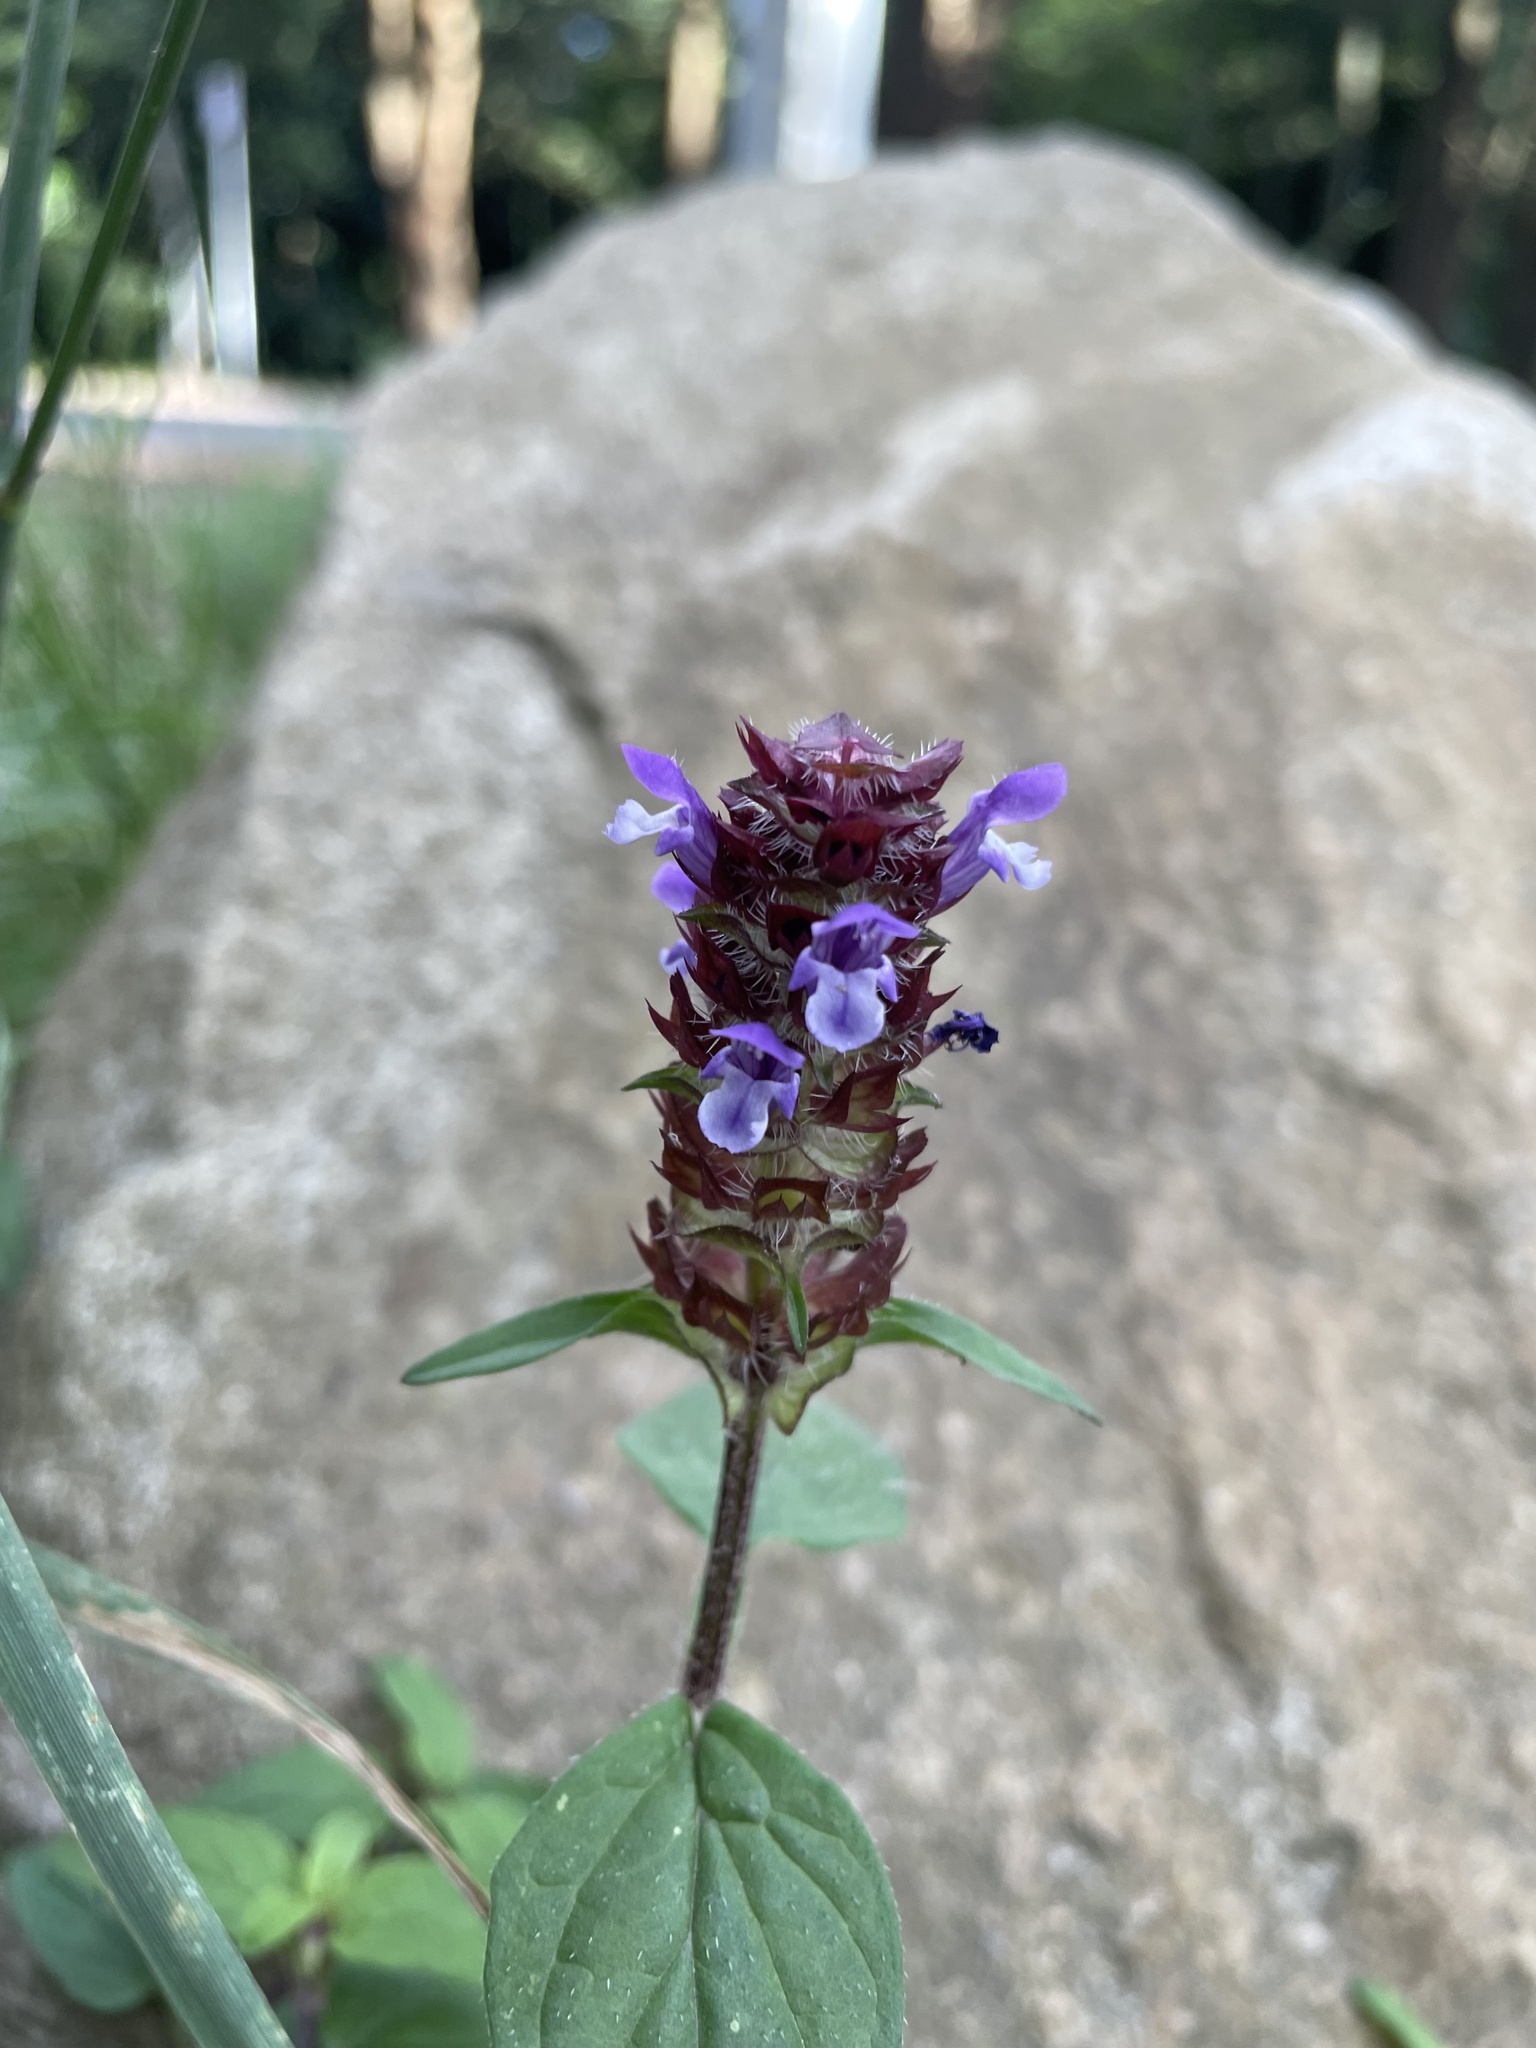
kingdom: Plantae
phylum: Tracheophyta
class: Magnoliopsida
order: Lamiales
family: Lamiaceae
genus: Prunella
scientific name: Prunella vulgaris
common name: Heal-all
